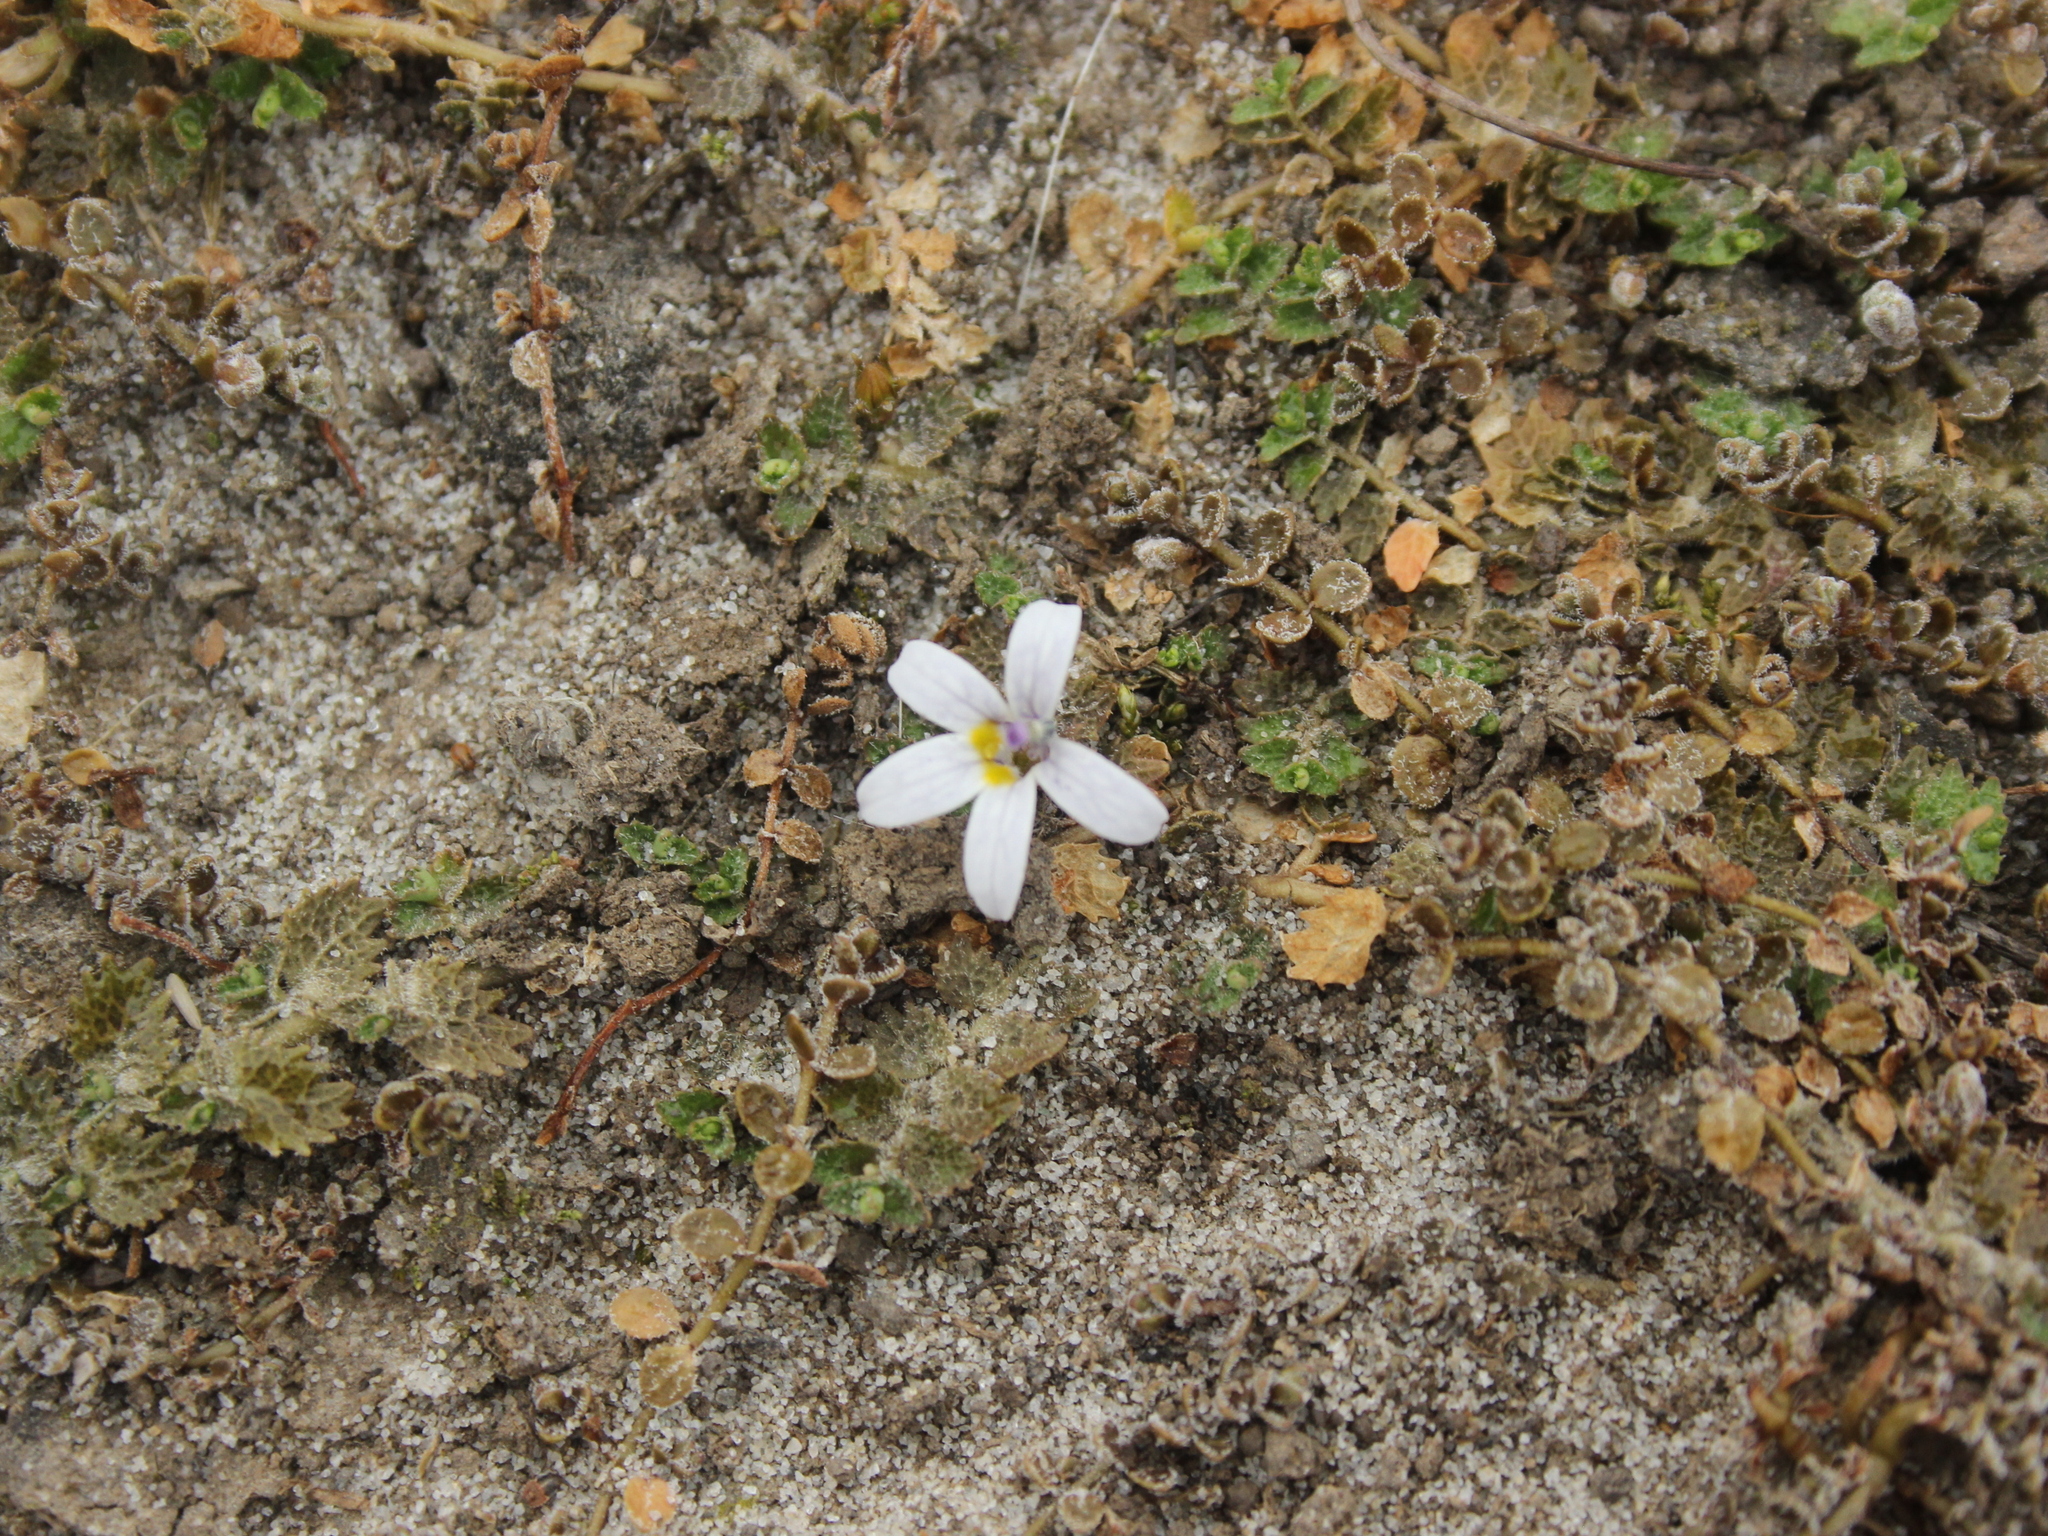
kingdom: Plantae
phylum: Tracheophyta
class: Magnoliopsida
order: Asterales
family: Campanulaceae
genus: Lobelia
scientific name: Lobelia perpusilla
